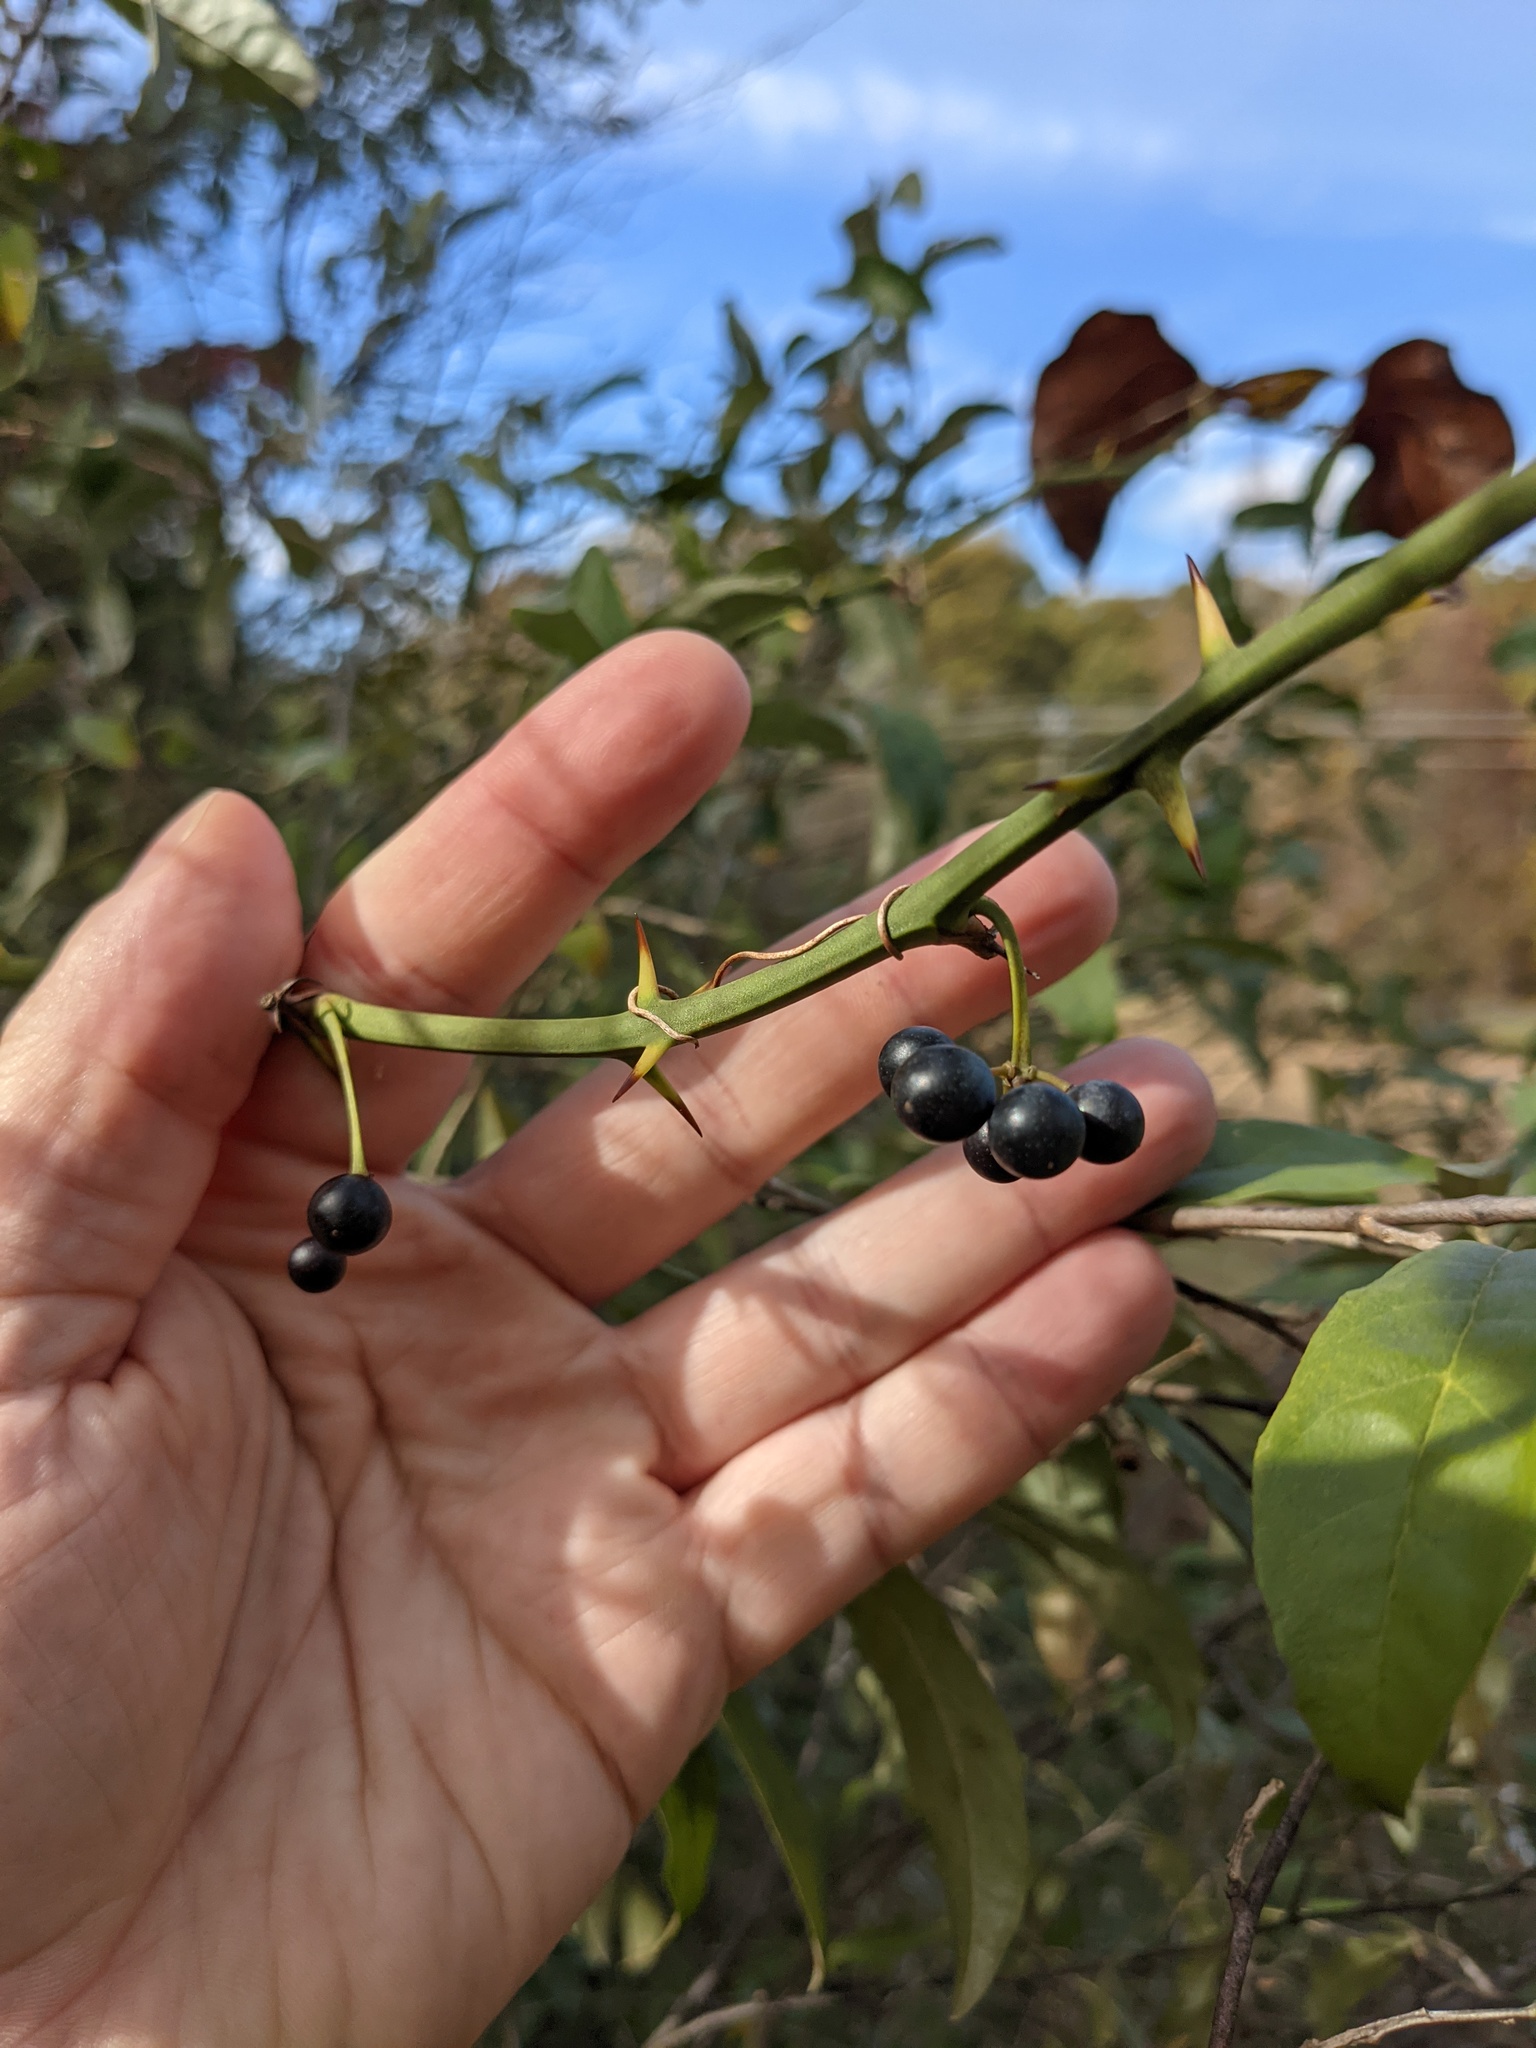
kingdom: Plantae
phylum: Tracheophyta
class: Liliopsida
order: Liliales
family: Smilacaceae
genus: Smilax
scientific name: Smilax rotundifolia
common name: Bullbriar
